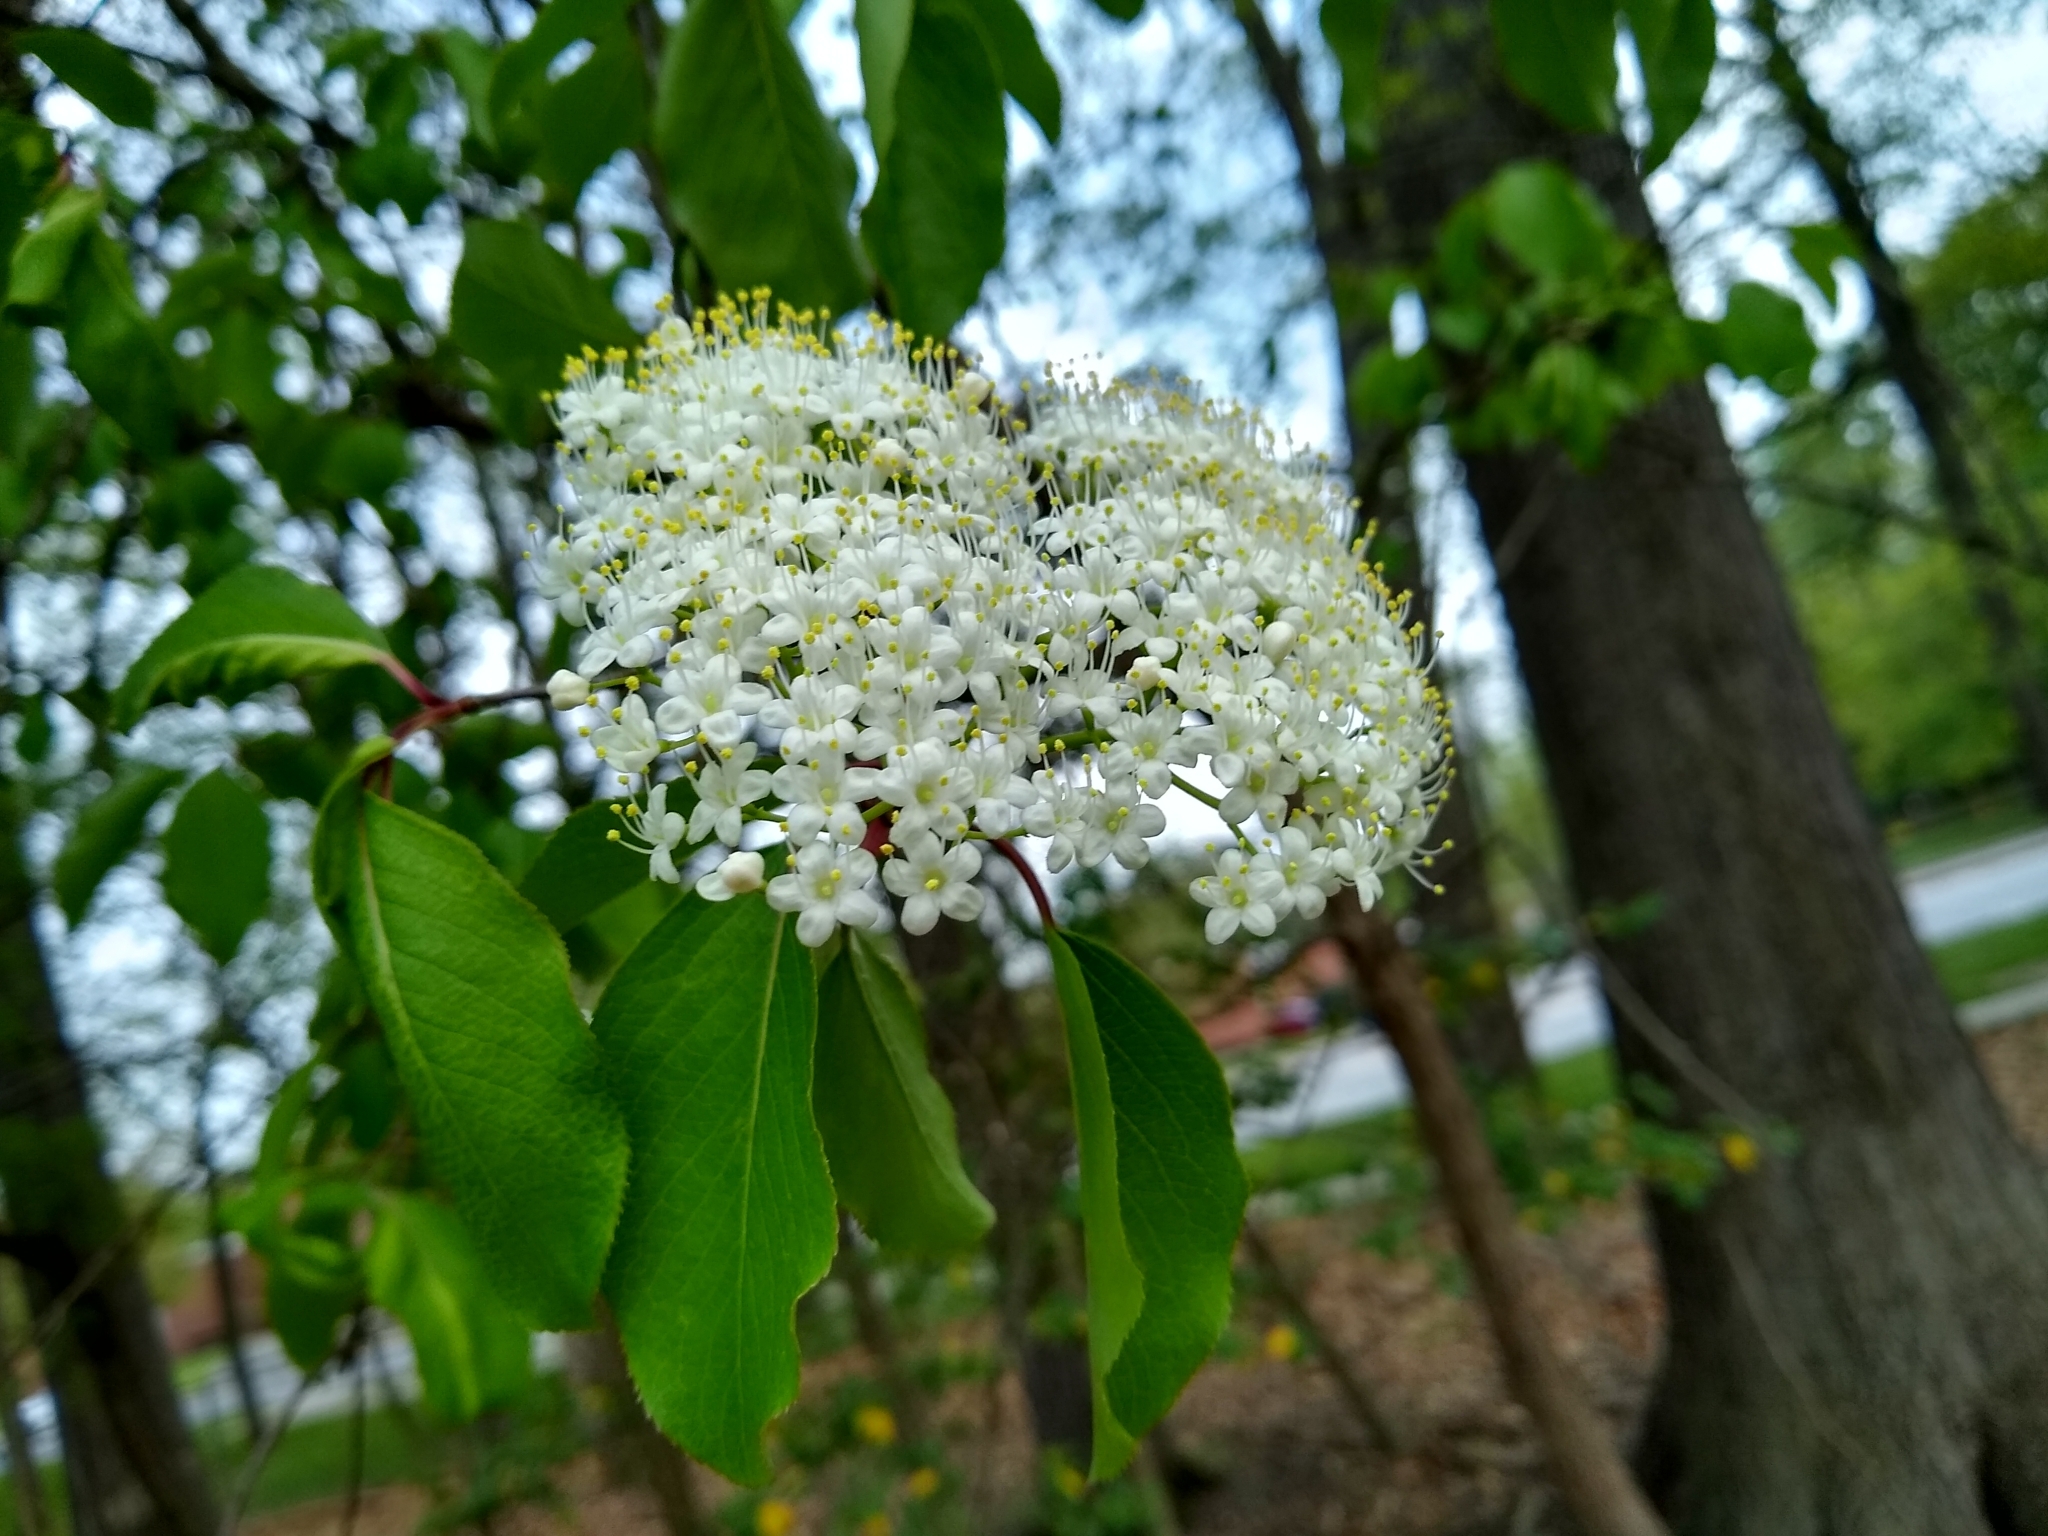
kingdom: Plantae
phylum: Tracheophyta
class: Magnoliopsida
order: Dipsacales
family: Viburnaceae
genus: Viburnum
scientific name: Viburnum prunifolium
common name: Black haw
